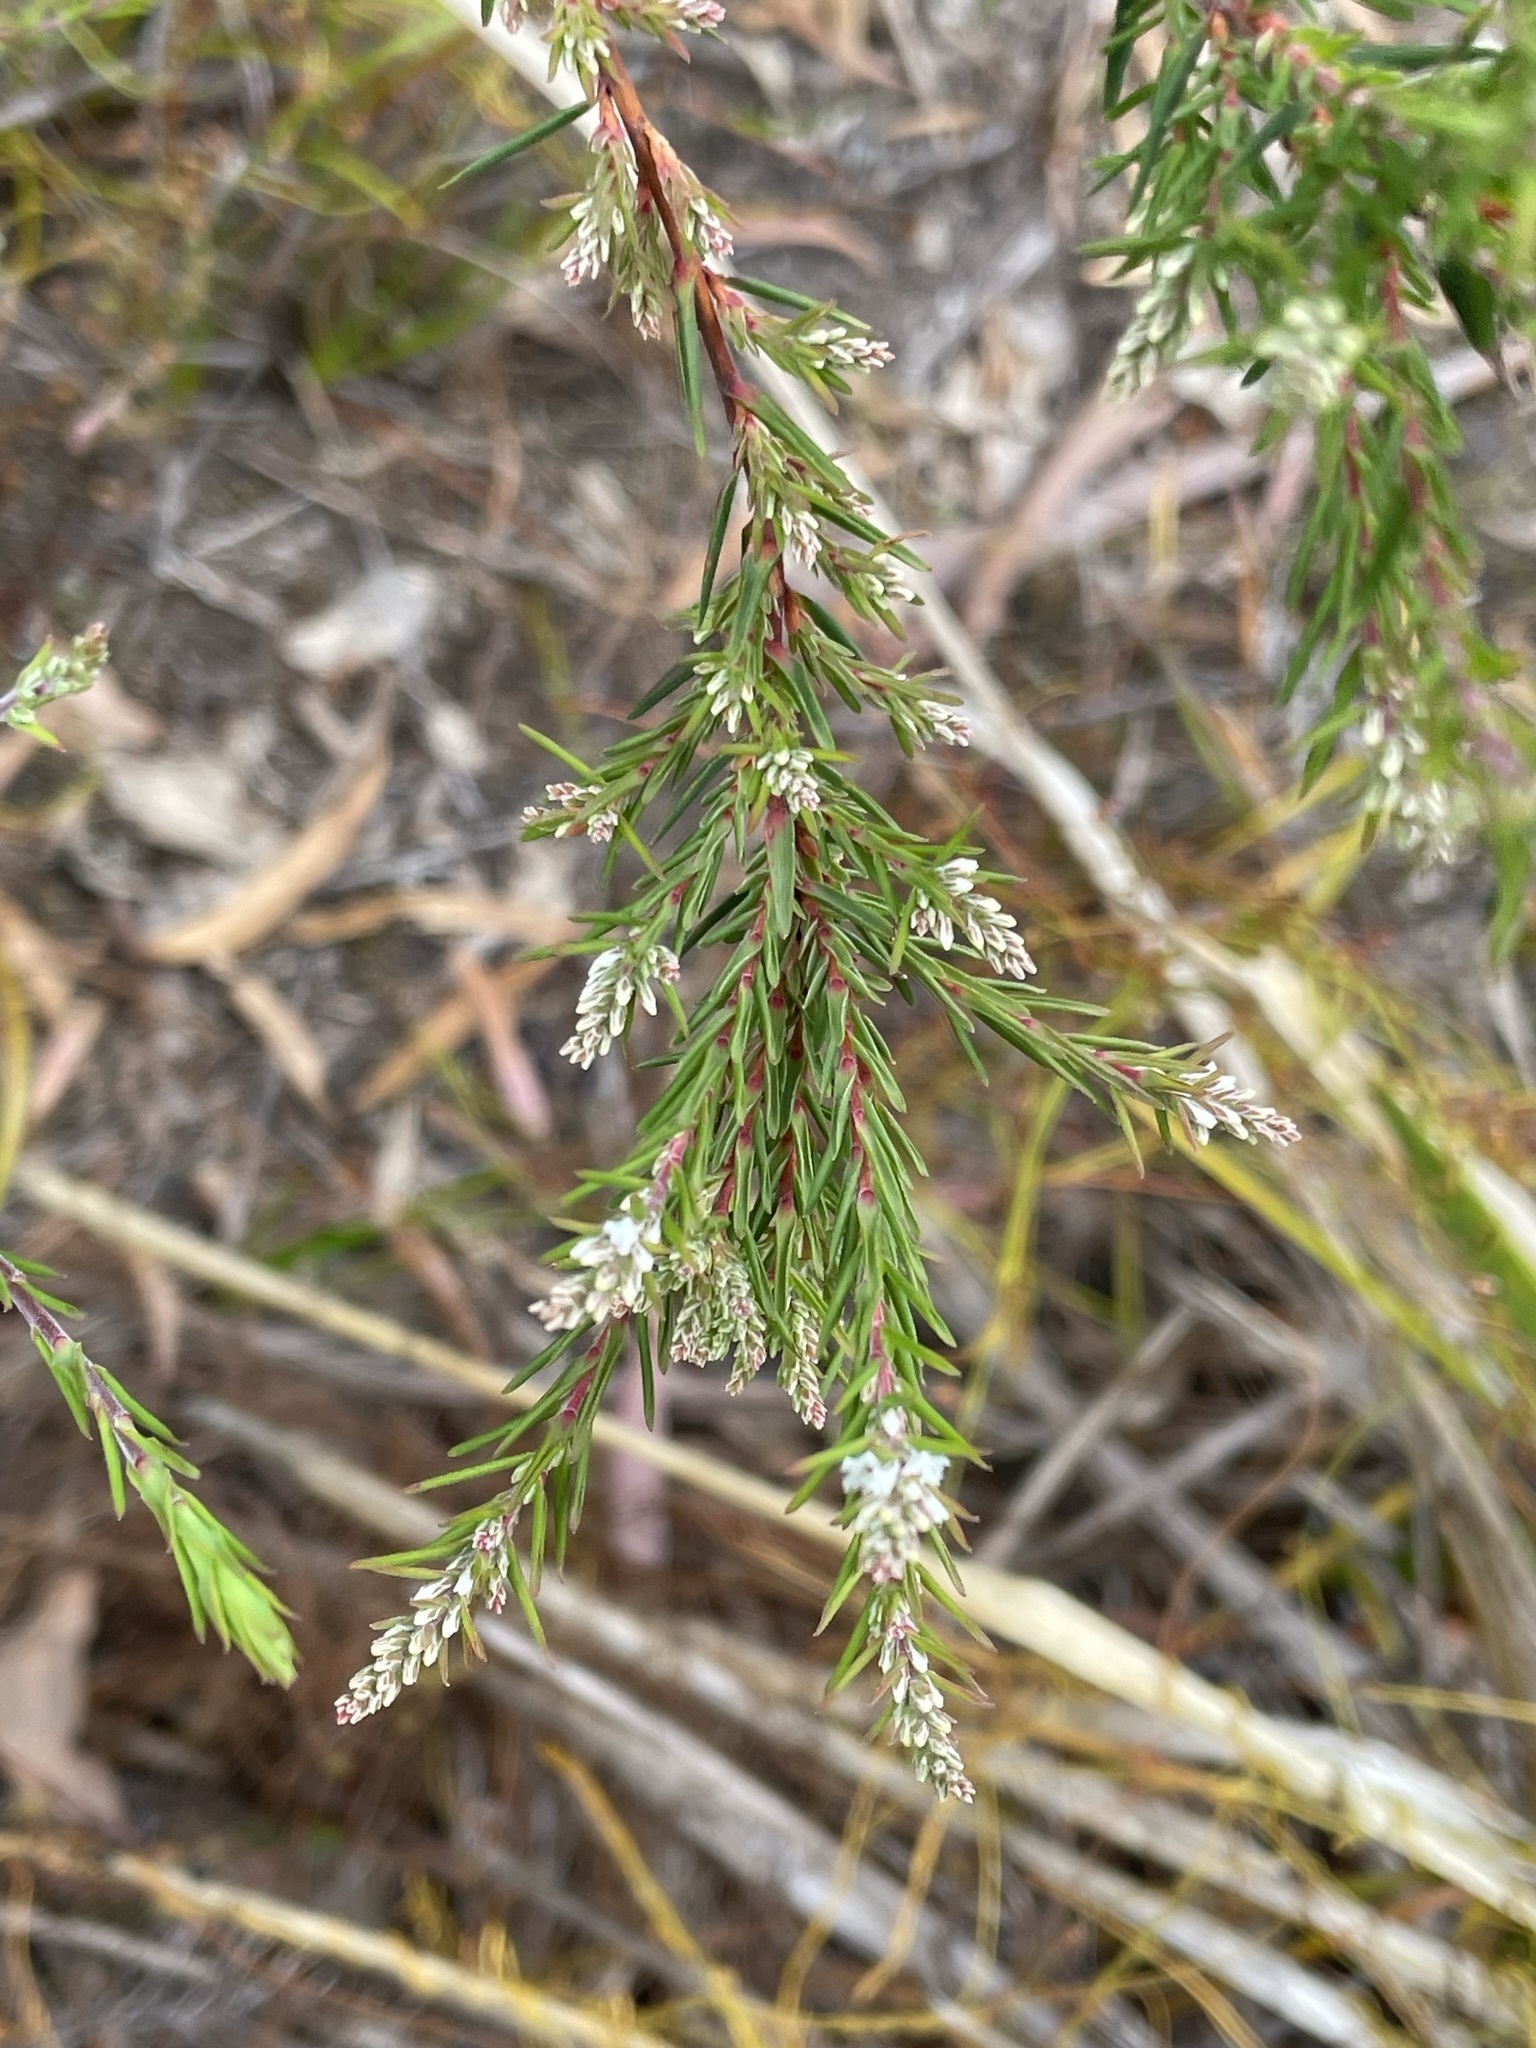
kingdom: Plantae
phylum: Tracheophyta
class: Magnoliopsida
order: Ericales
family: Ericaceae
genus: Leucopogon
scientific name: Leucopogon collinus
